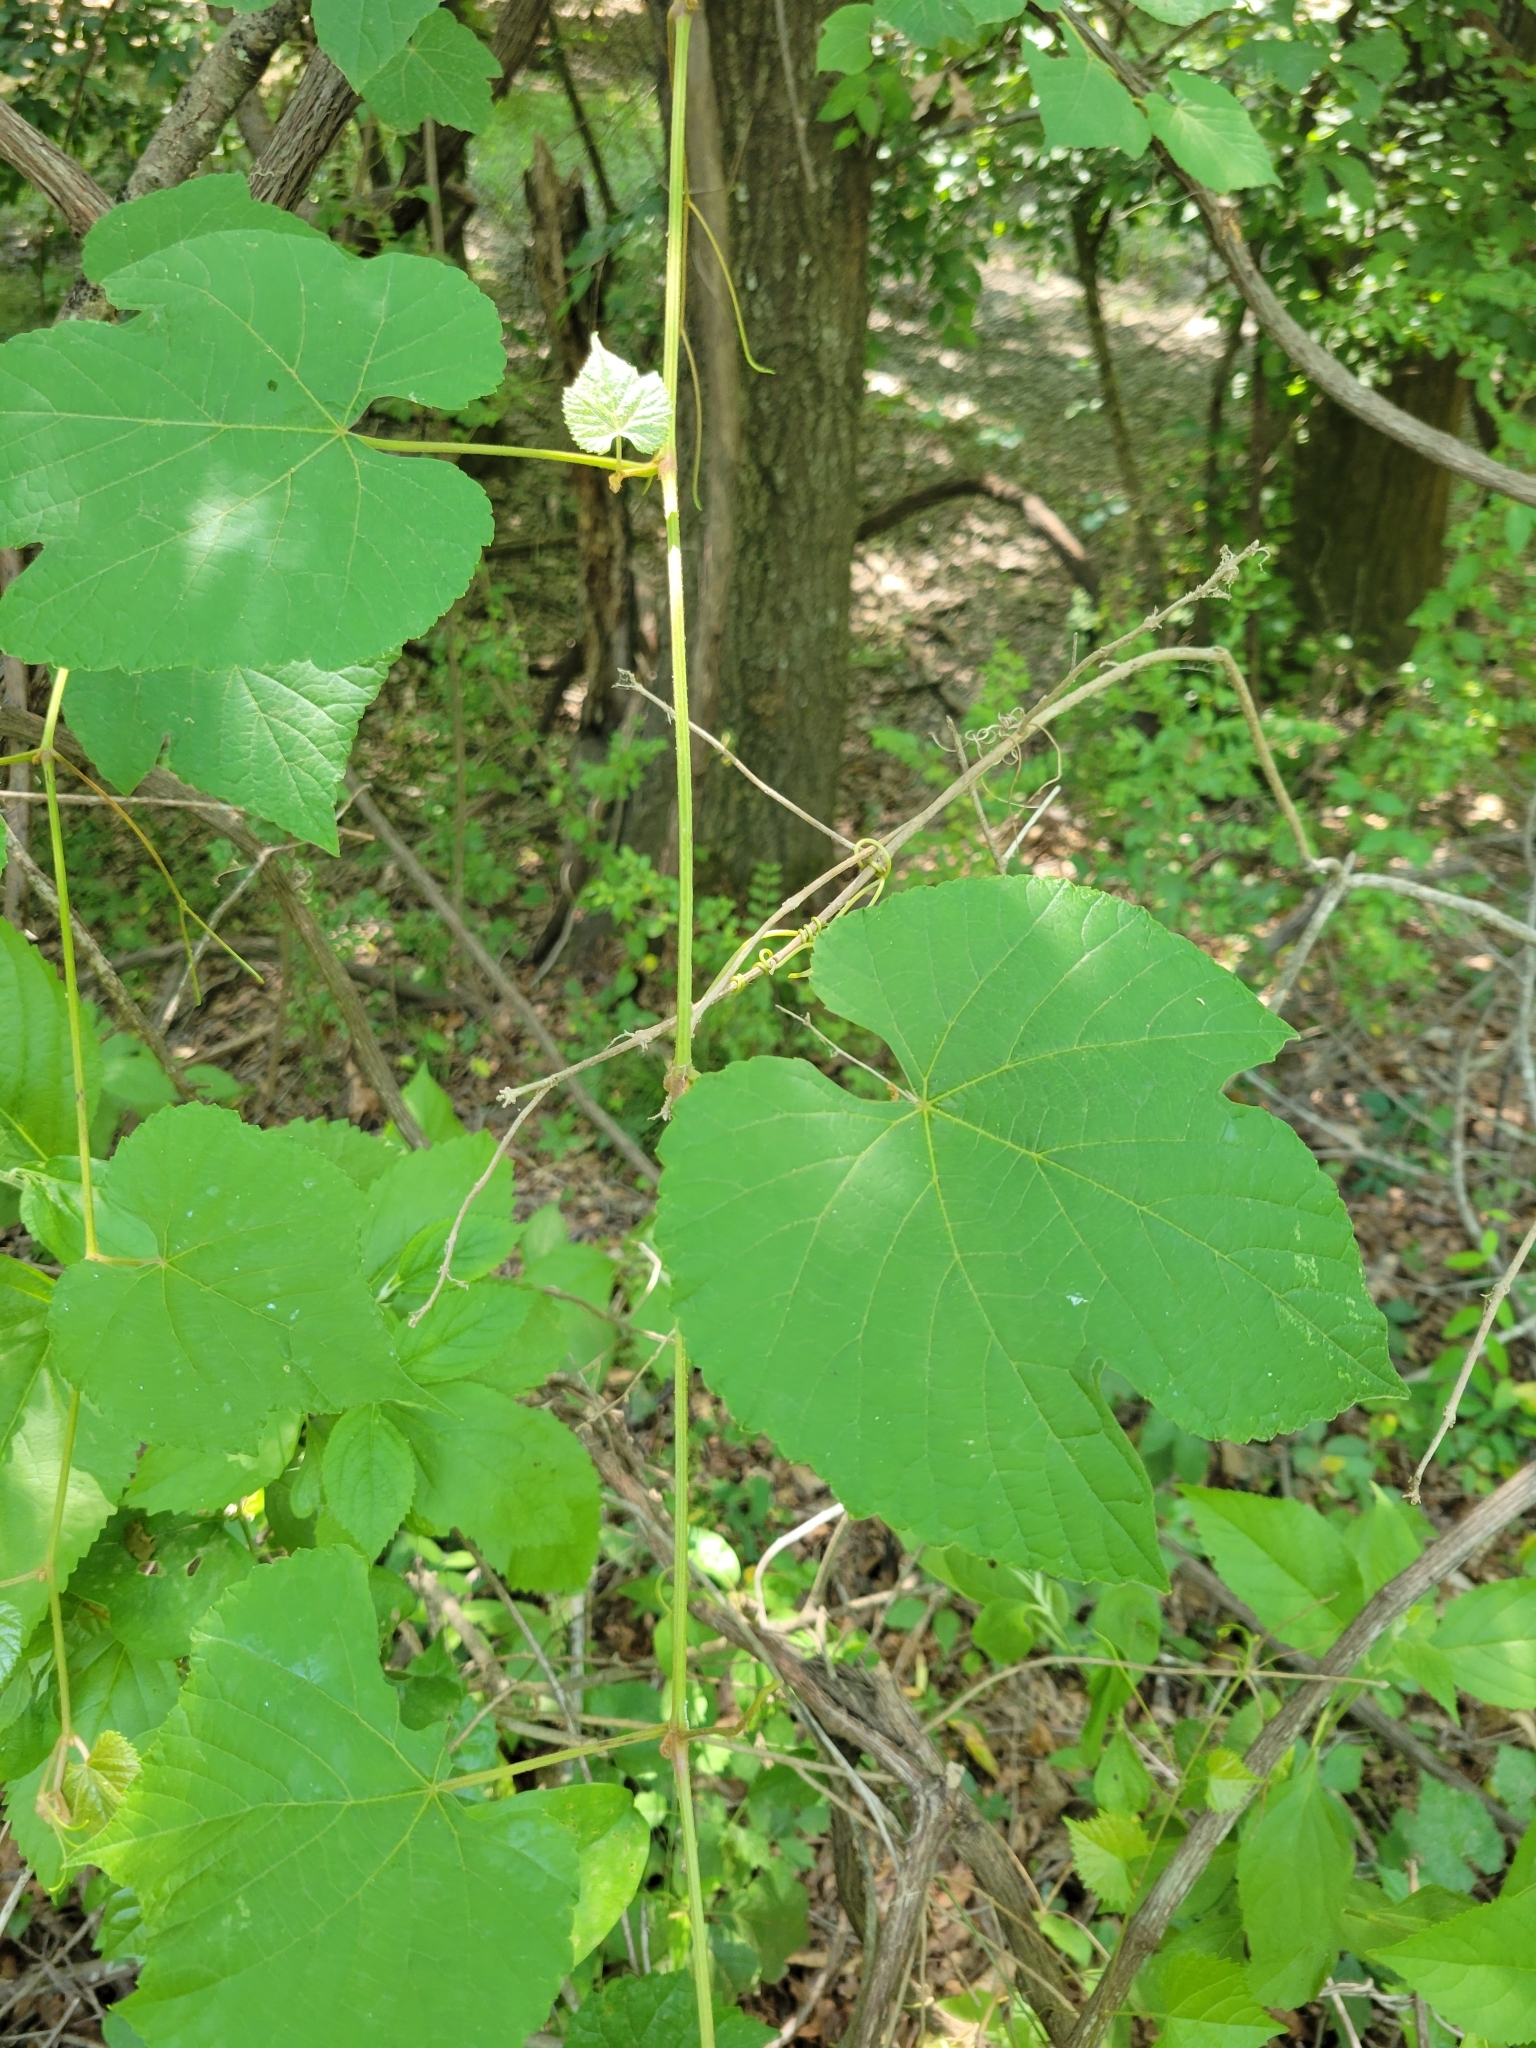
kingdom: Plantae
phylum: Tracheophyta
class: Magnoliopsida
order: Vitales
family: Vitaceae
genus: Vitis
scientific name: Vitis aestivalis
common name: Pigeon grape
